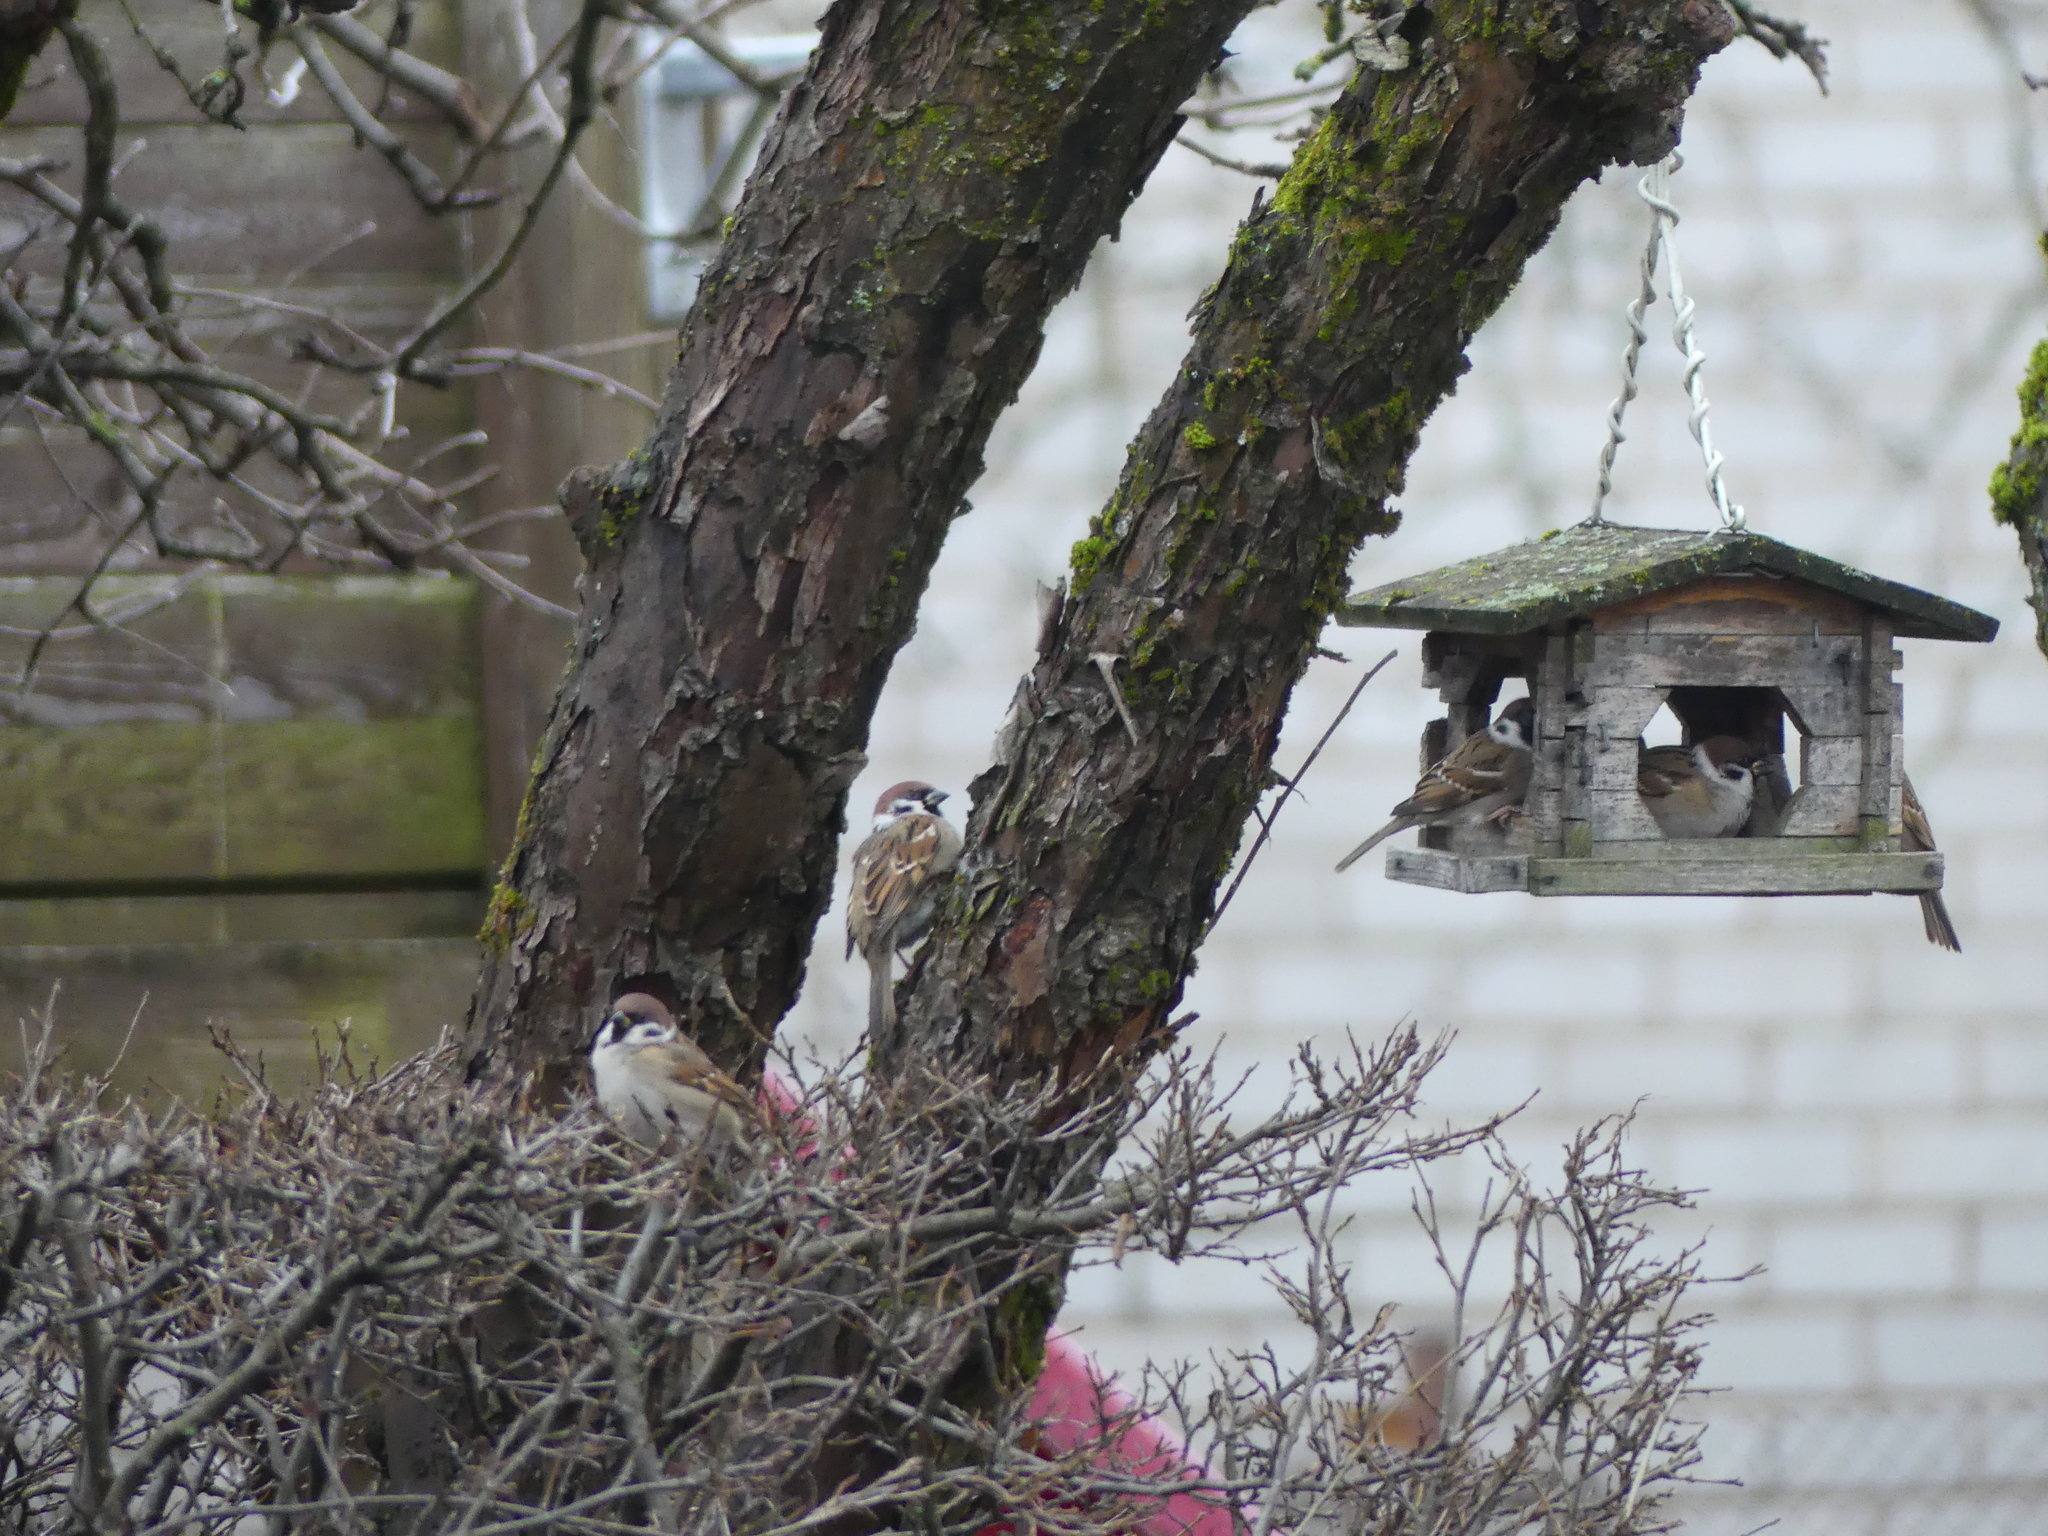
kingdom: Animalia
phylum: Chordata
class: Aves
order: Passeriformes
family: Passeridae
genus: Passer
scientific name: Passer montanus
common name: Eurasian tree sparrow
